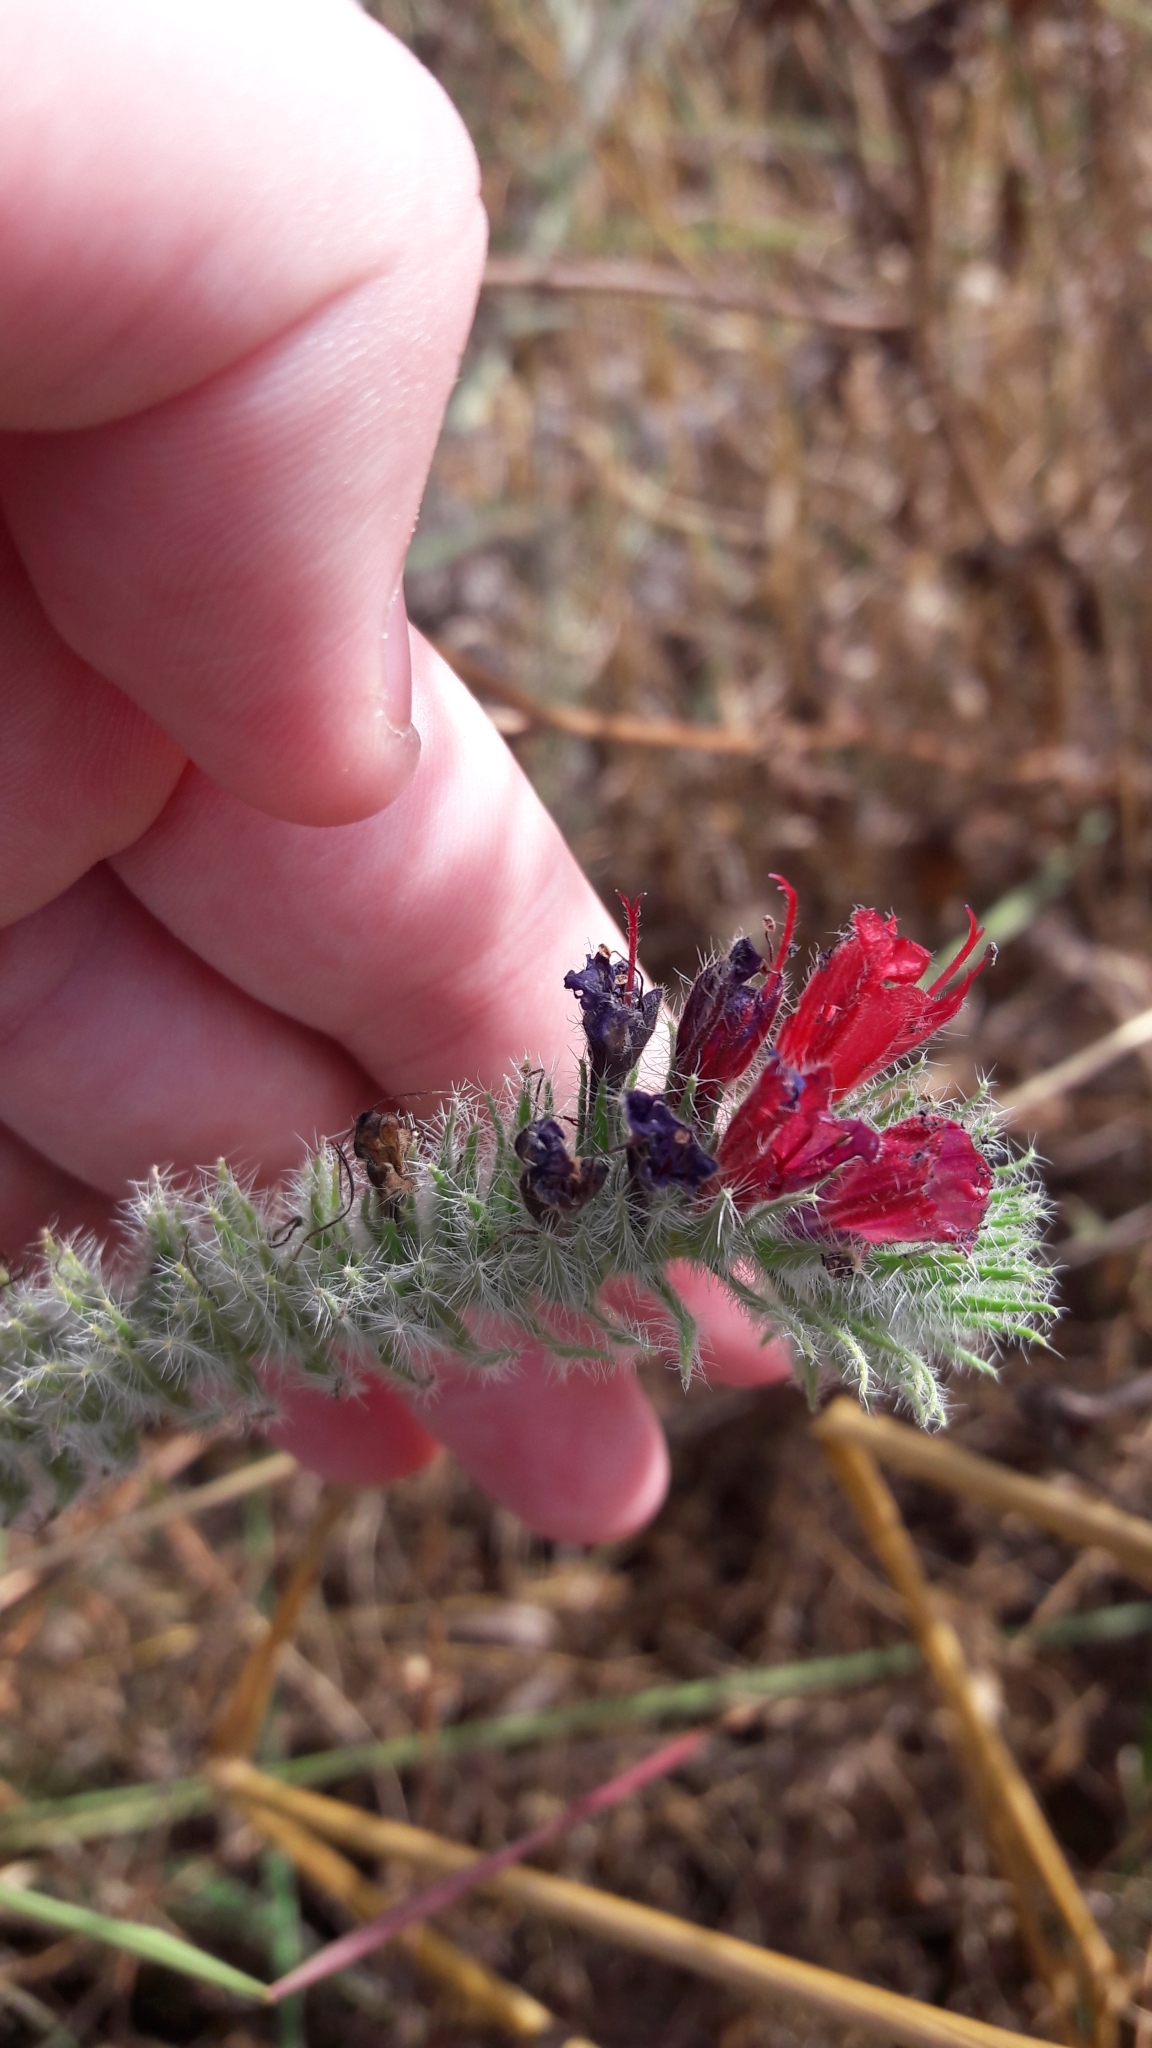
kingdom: Plantae
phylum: Tracheophyta
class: Magnoliopsida
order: Boraginales
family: Boraginaceae
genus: Echium
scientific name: Echium angustifolium
